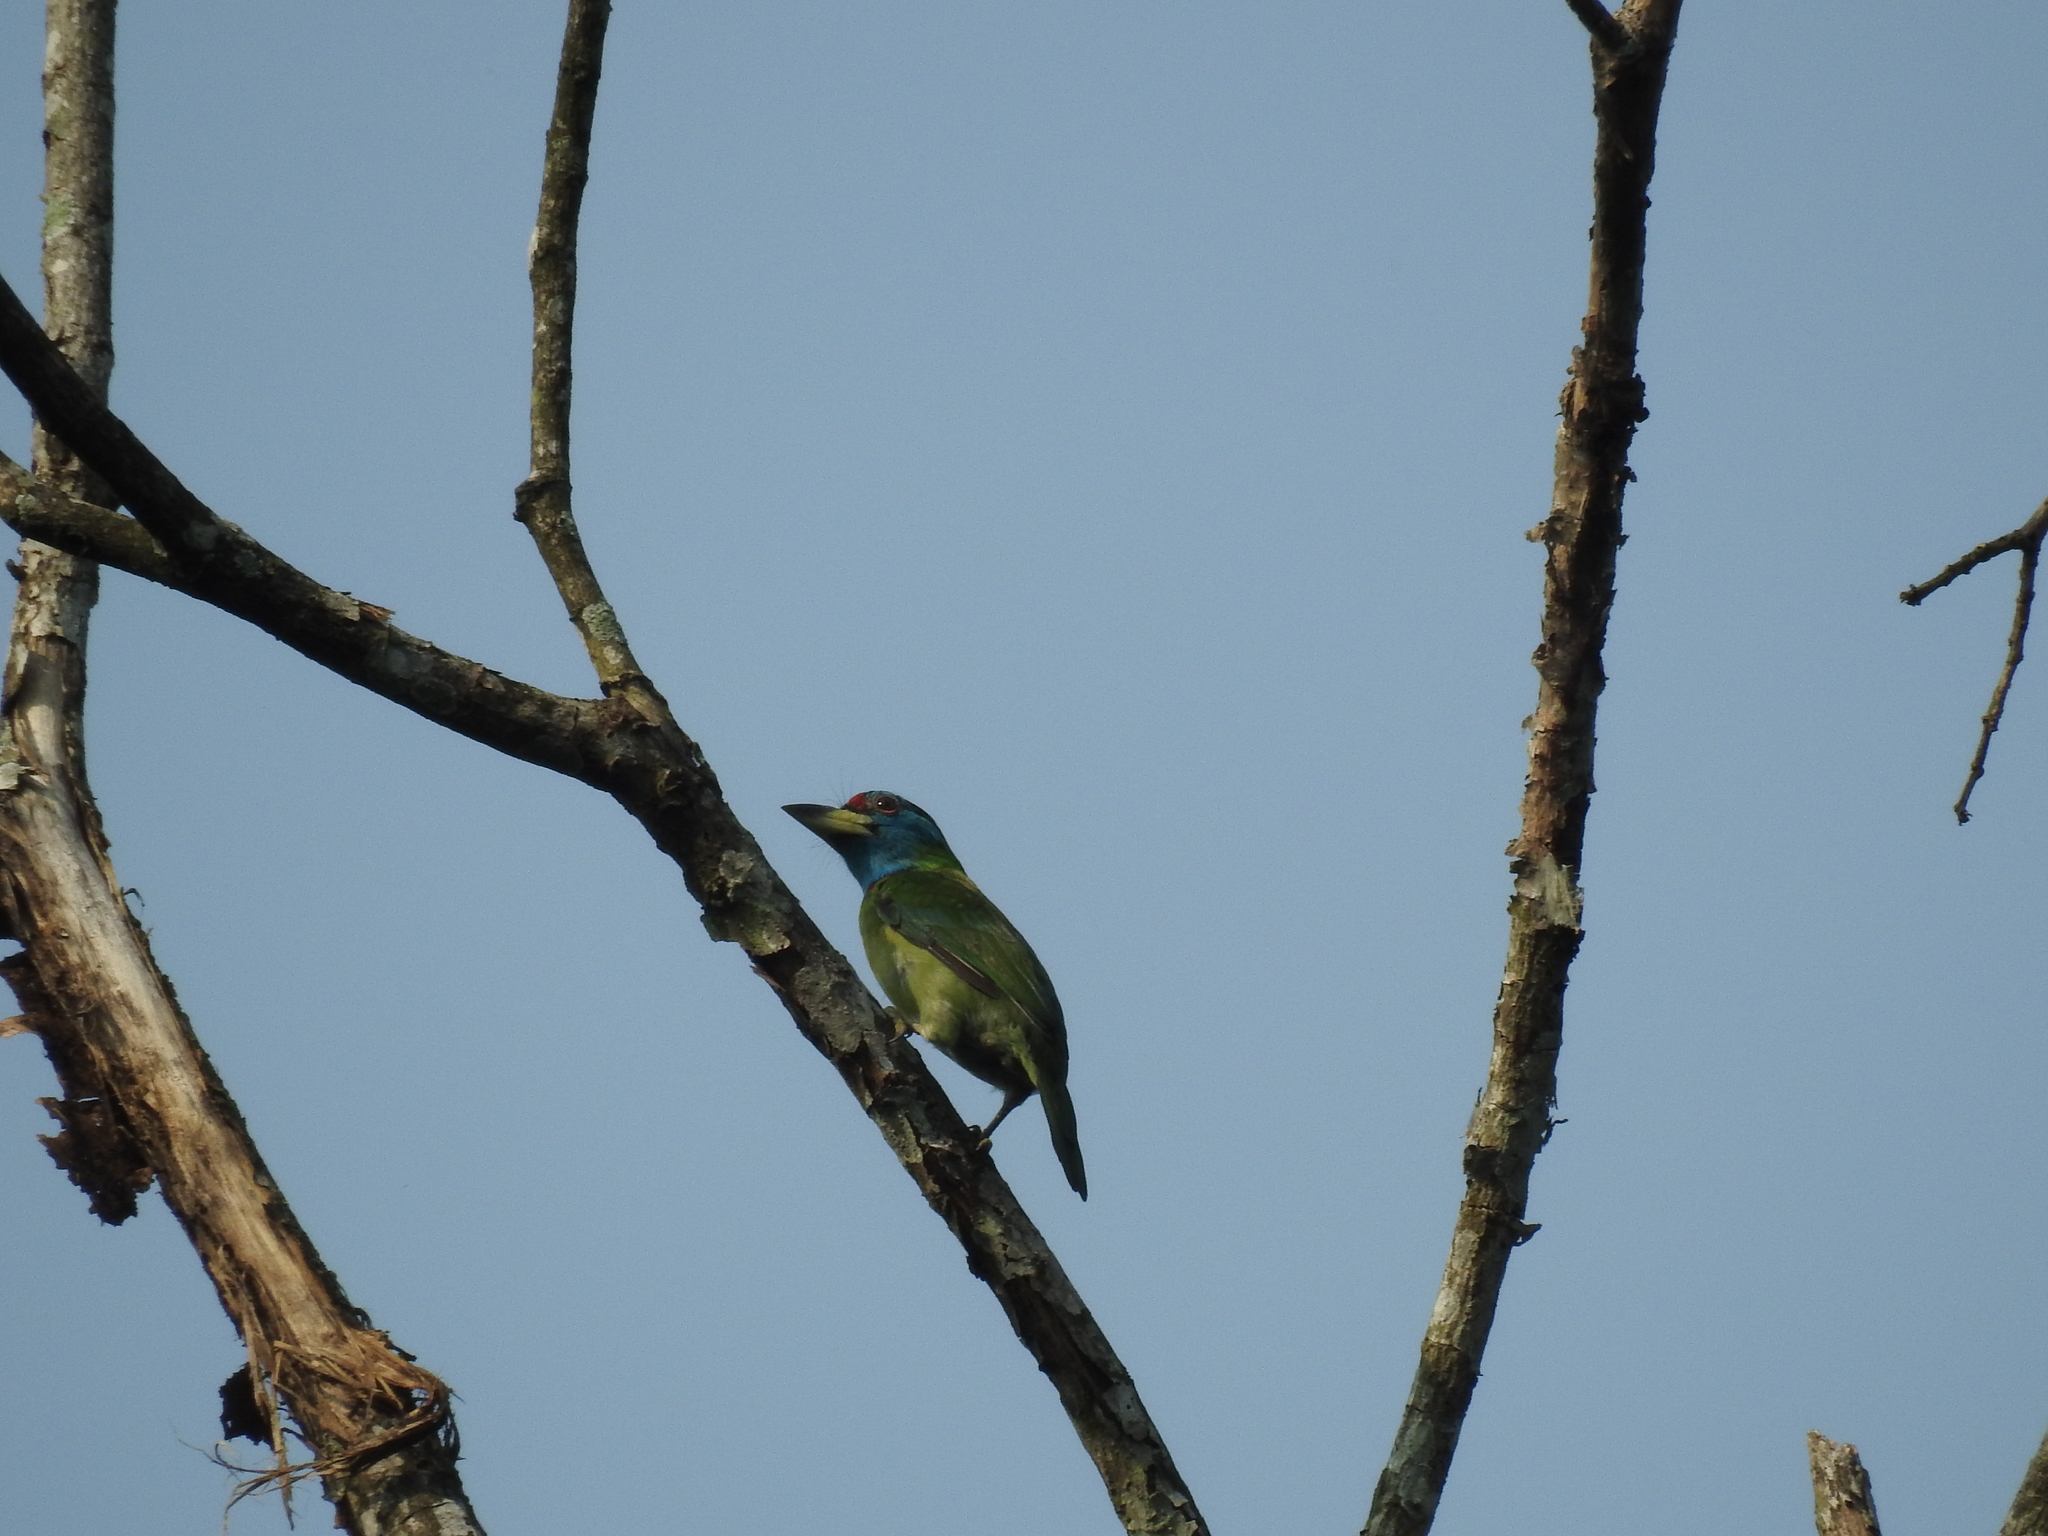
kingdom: Animalia
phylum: Chordata
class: Aves
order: Piciformes
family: Megalaimidae
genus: Psilopogon
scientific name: Psilopogon asiaticus
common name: Blue-throated barbet
